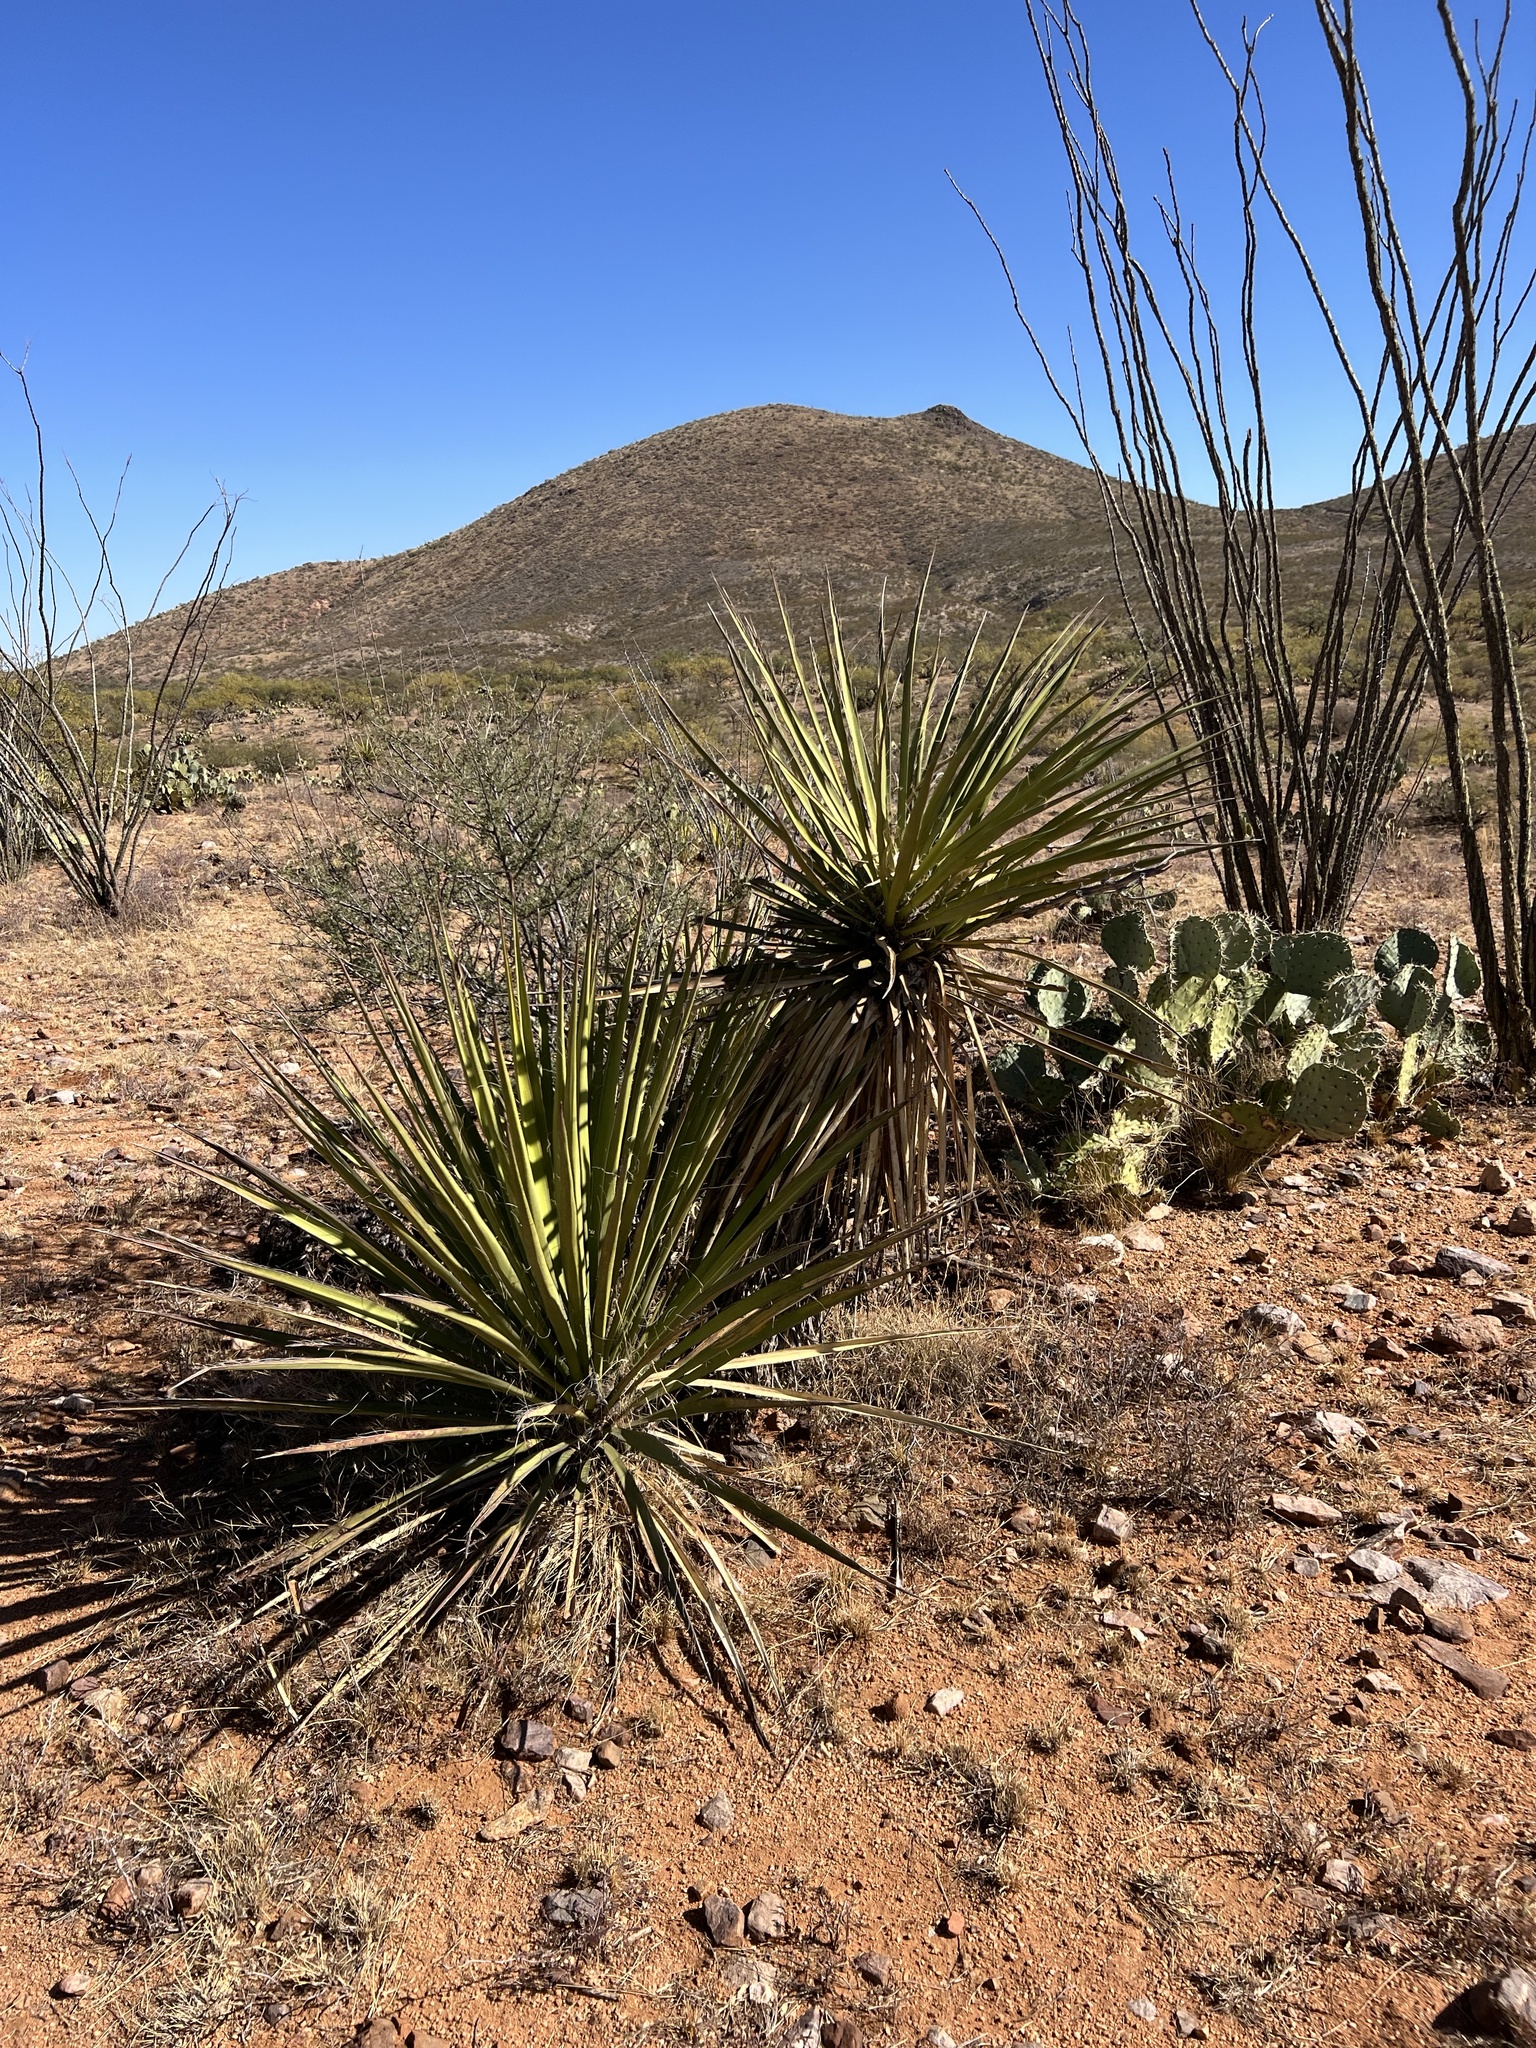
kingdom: Plantae
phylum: Tracheophyta
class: Liliopsida
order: Asparagales
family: Asparagaceae
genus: Yucca
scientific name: Yucca baccata
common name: Banana yucca
